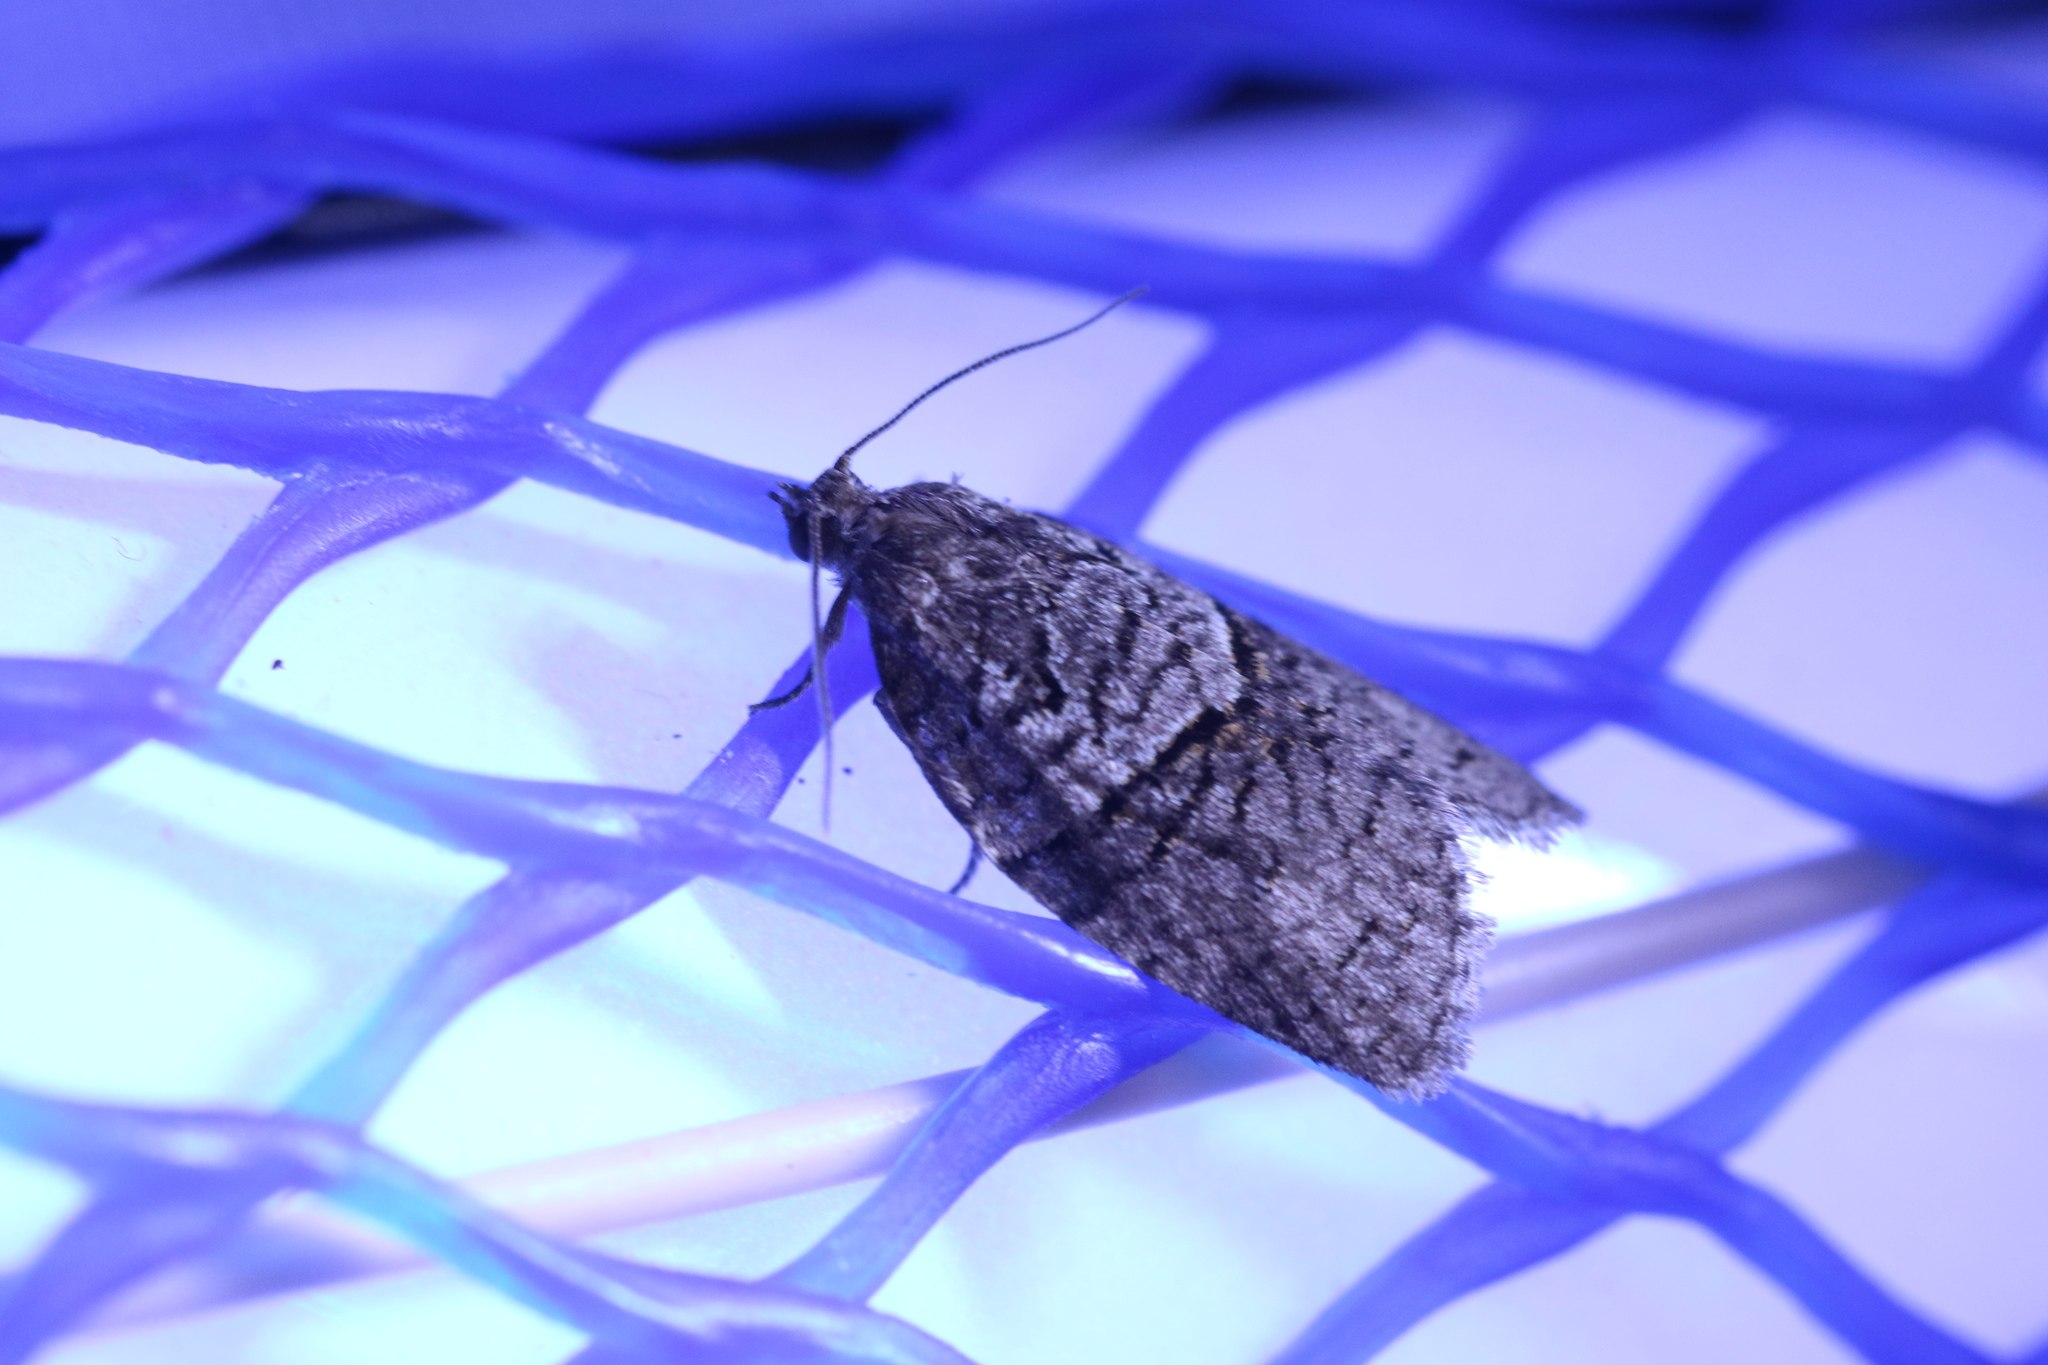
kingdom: Animalia
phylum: Arthropoda
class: Insecta
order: Lepidoptera
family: Tortricidae
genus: Syndemis
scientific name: Syndemis afflictana
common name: Gray leafroller moth
